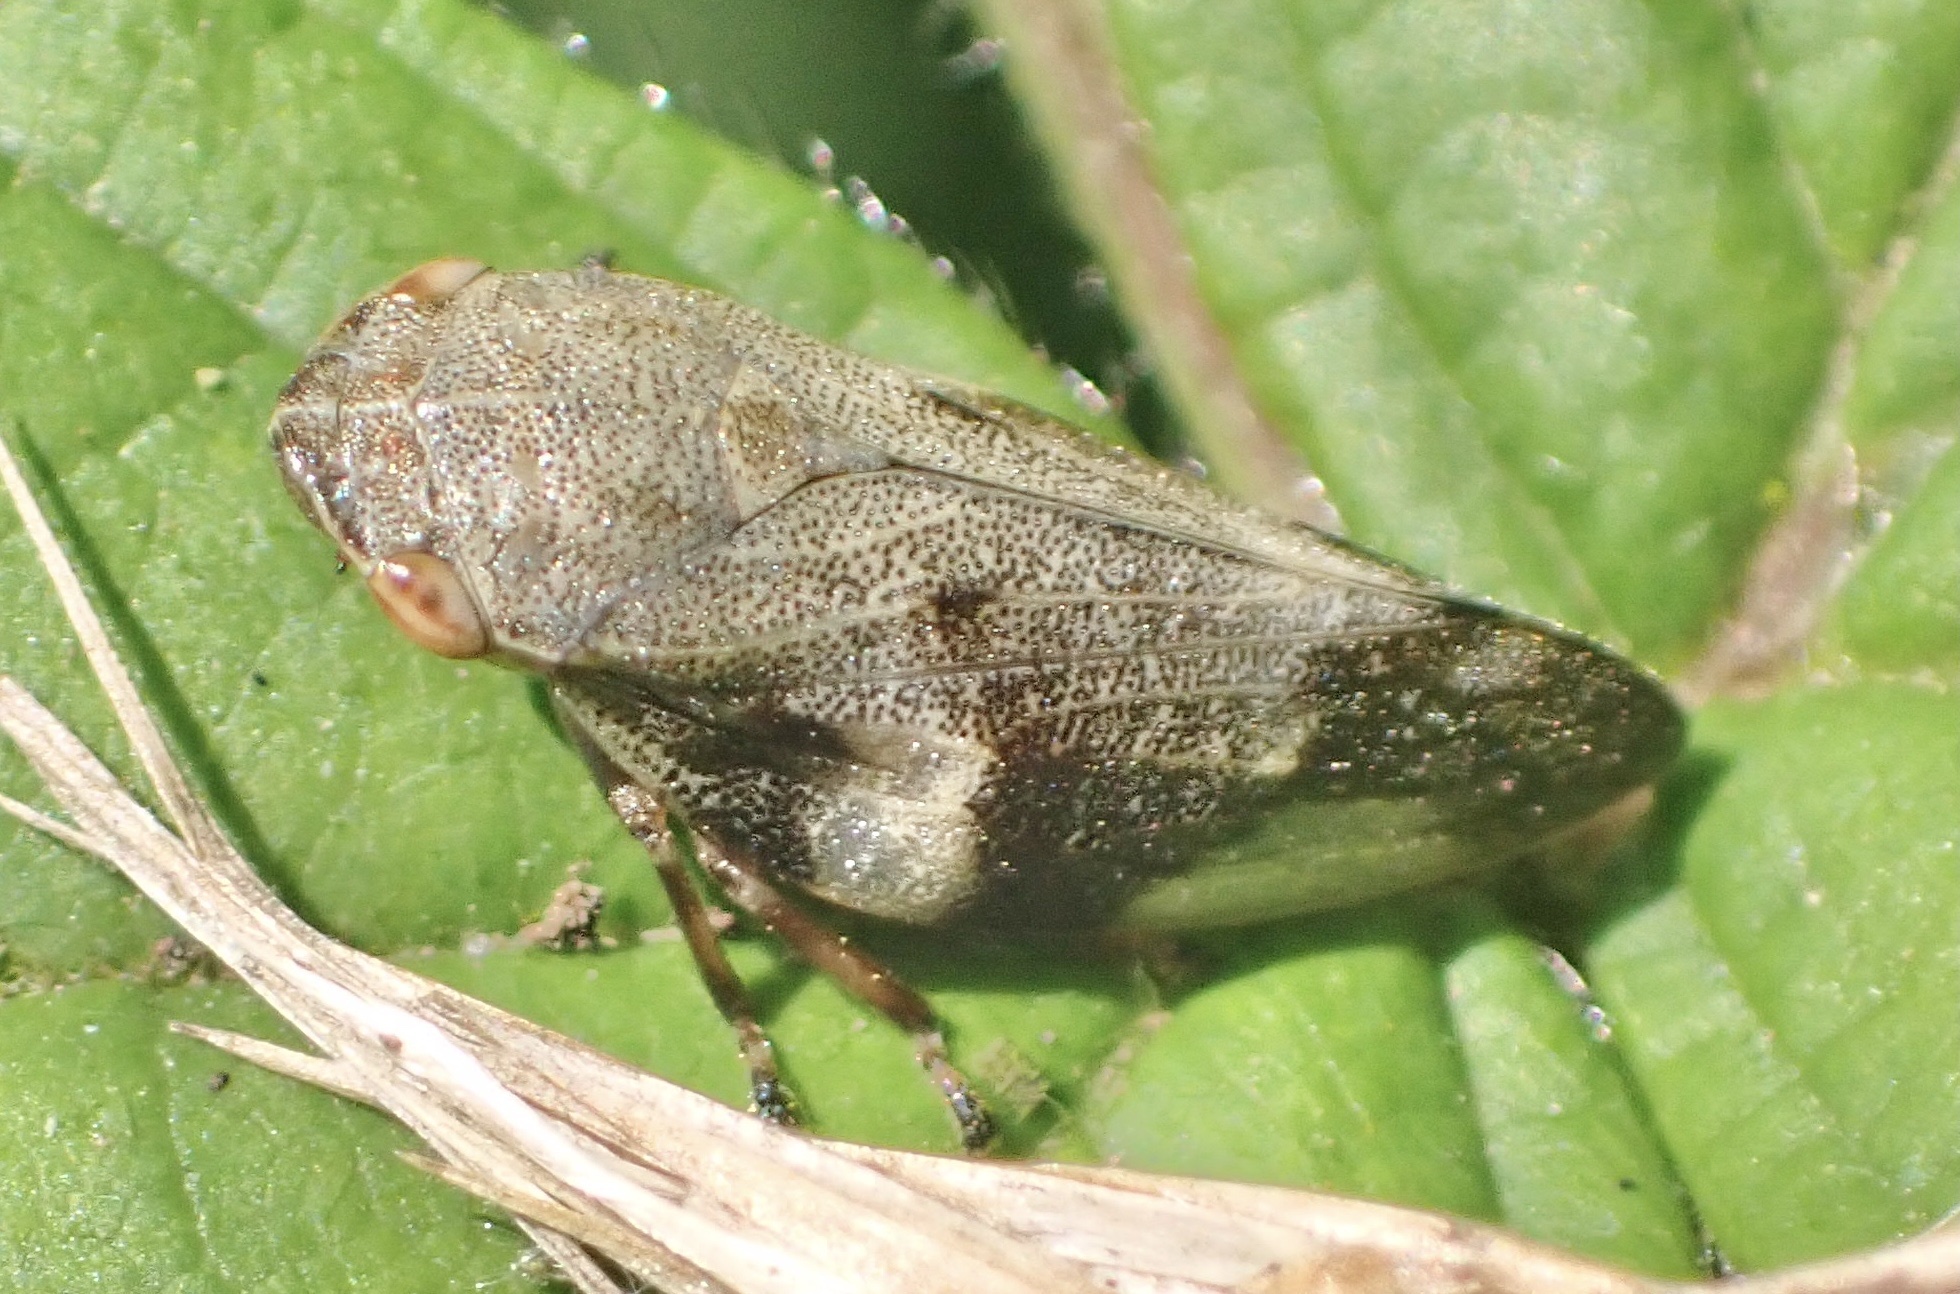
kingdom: Animalia
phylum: Arthropoda
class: Insecta
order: Hemiptera
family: Aphrophoridae
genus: Aphrophora
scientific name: Aphrophora alni
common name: European alder spittlebug
